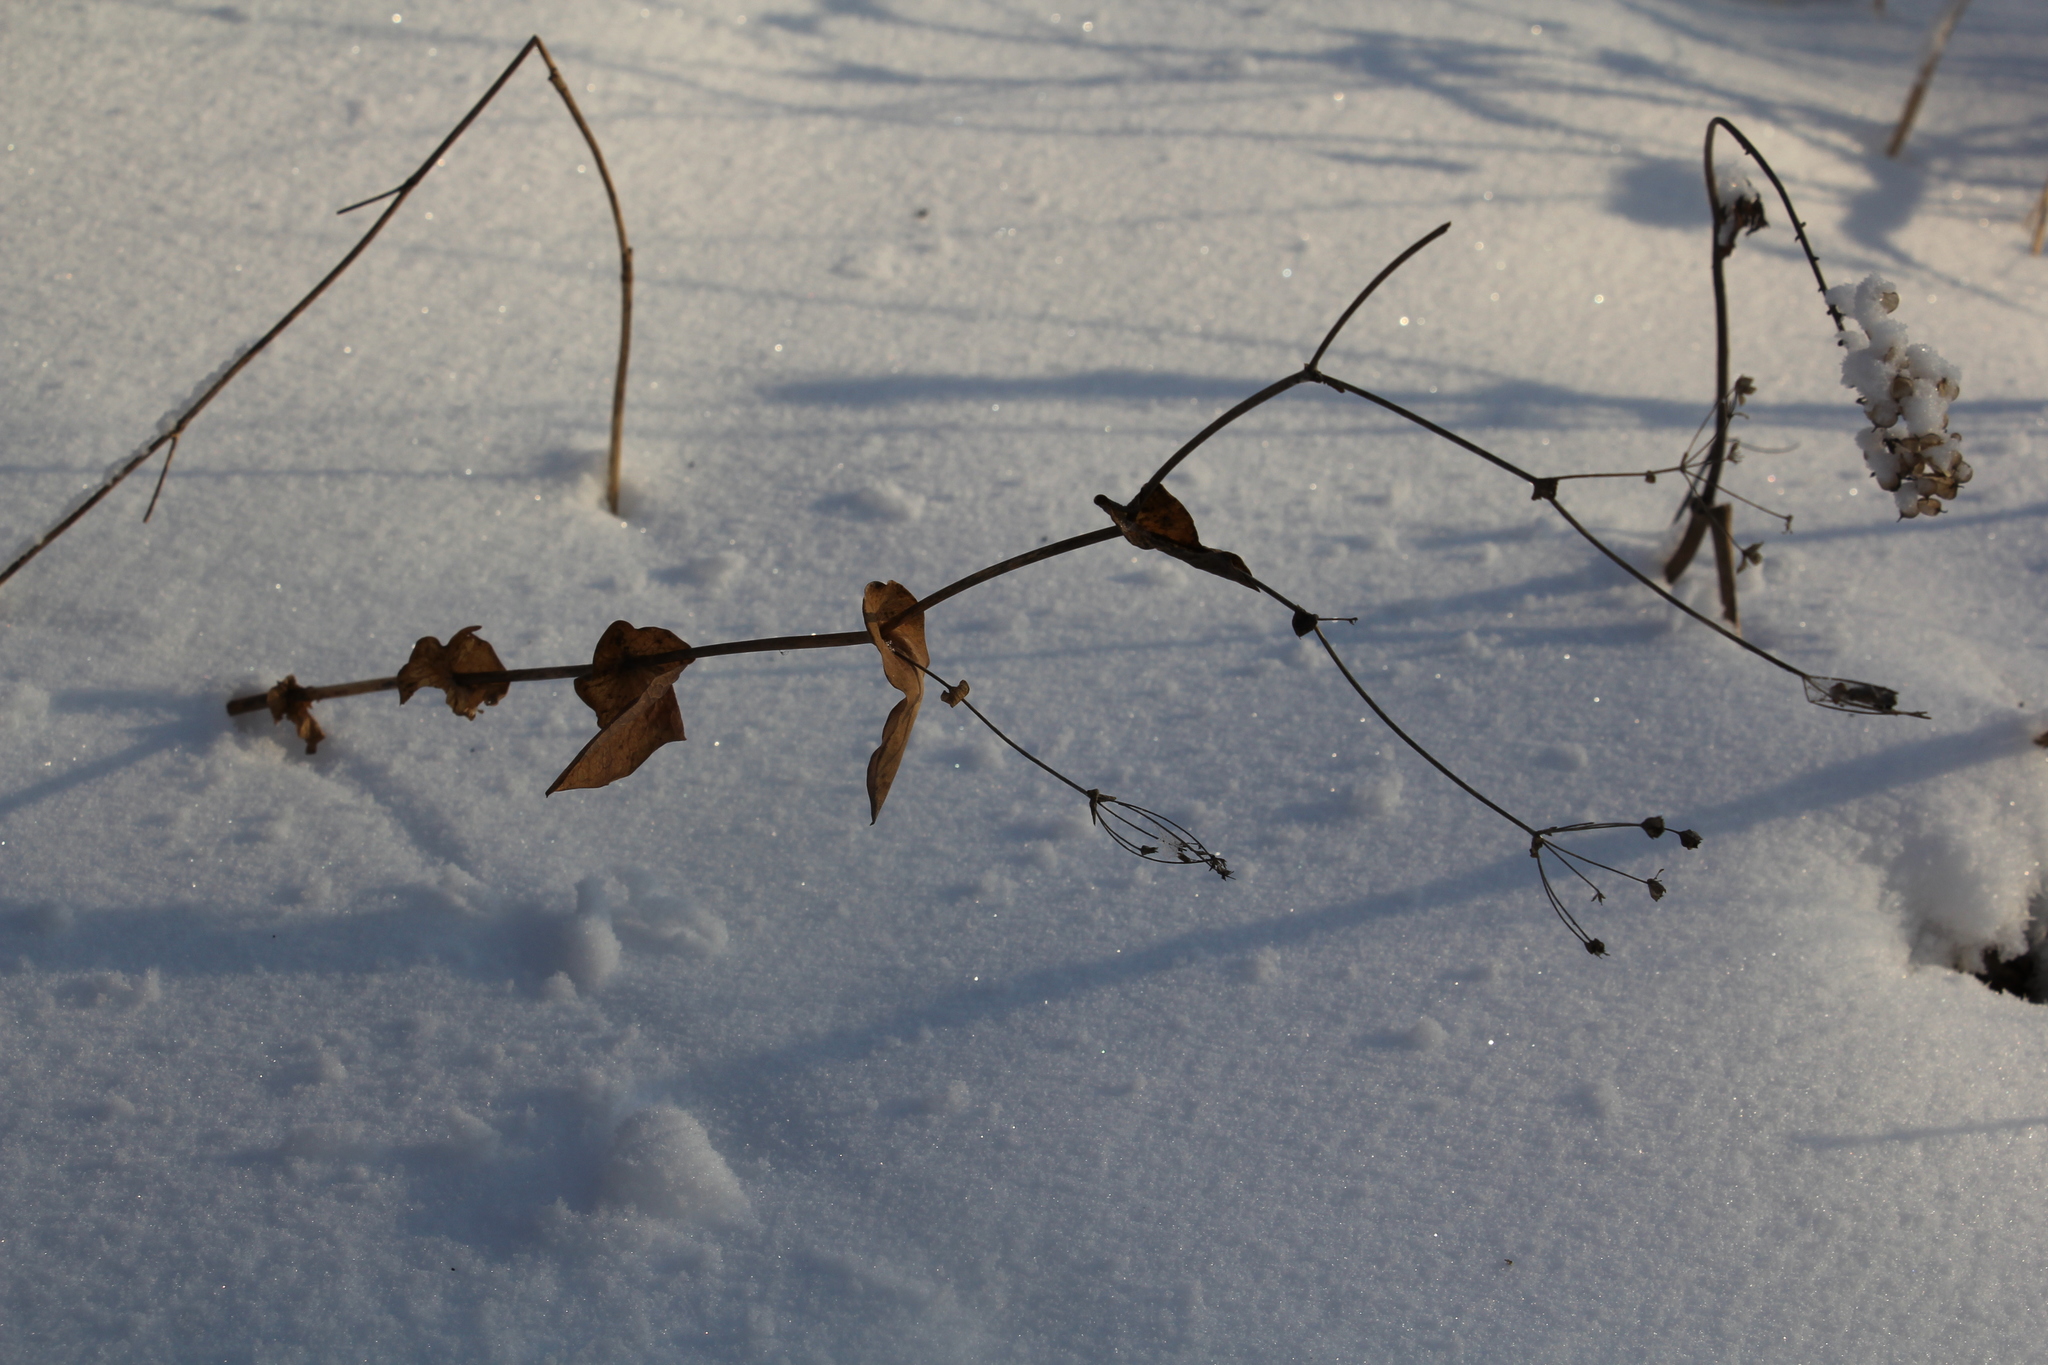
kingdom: Plantae
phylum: Tracheophyta
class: Magnoliopsida
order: Apiales
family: Apiaceae
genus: Bupleurum
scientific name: Bupleurum aureum
